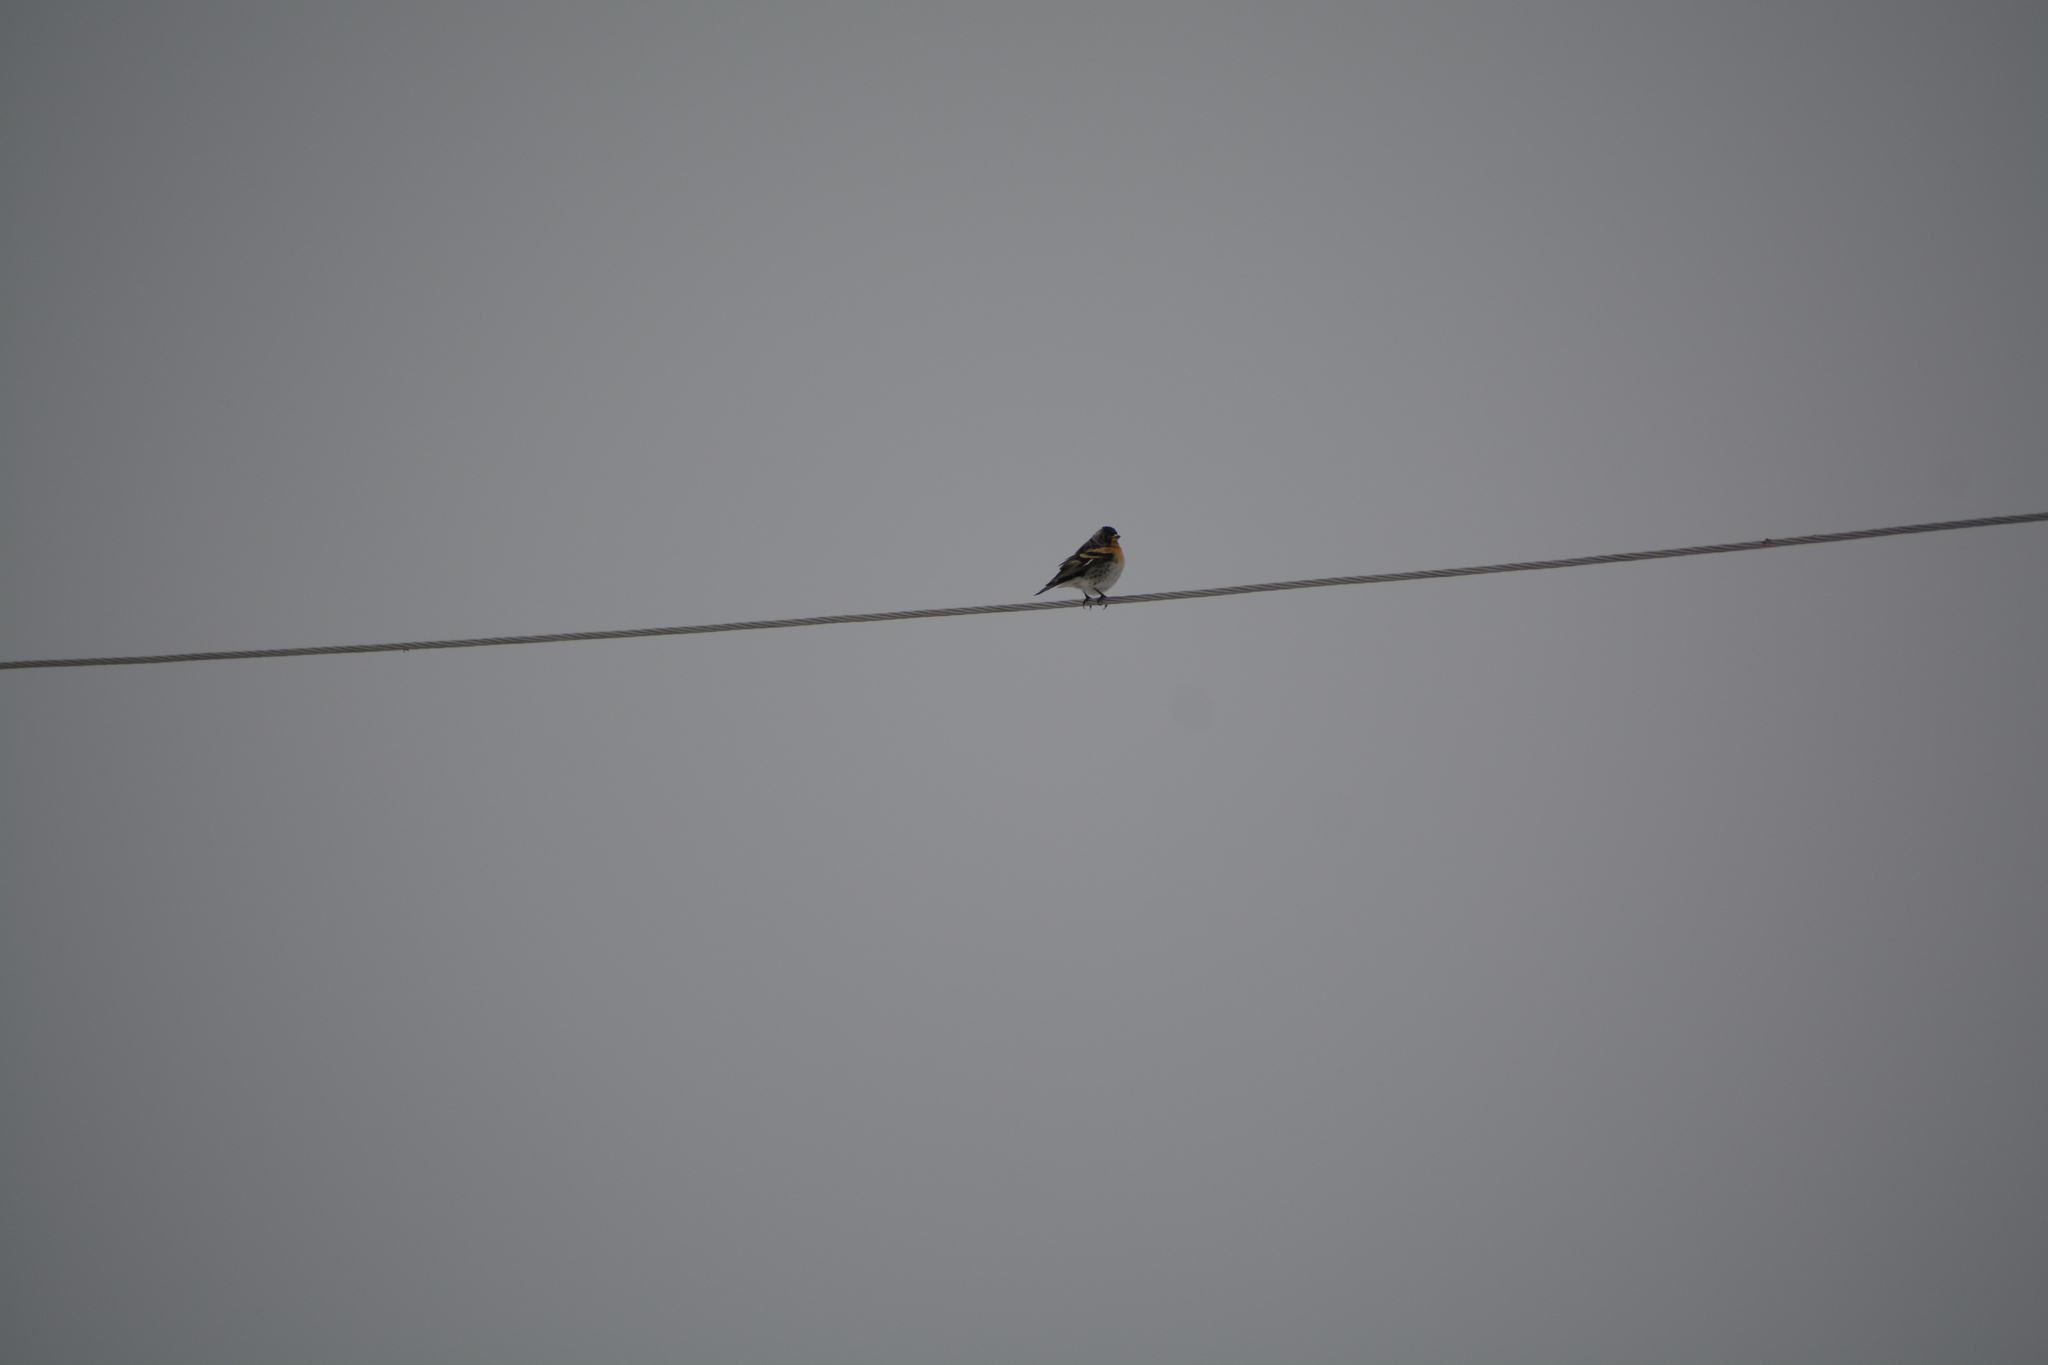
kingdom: Animalia
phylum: Chordata
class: Aves
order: Passeriformes
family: Fringillidae
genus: Fringilla
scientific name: Fringilla montifringilla
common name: Brambling
